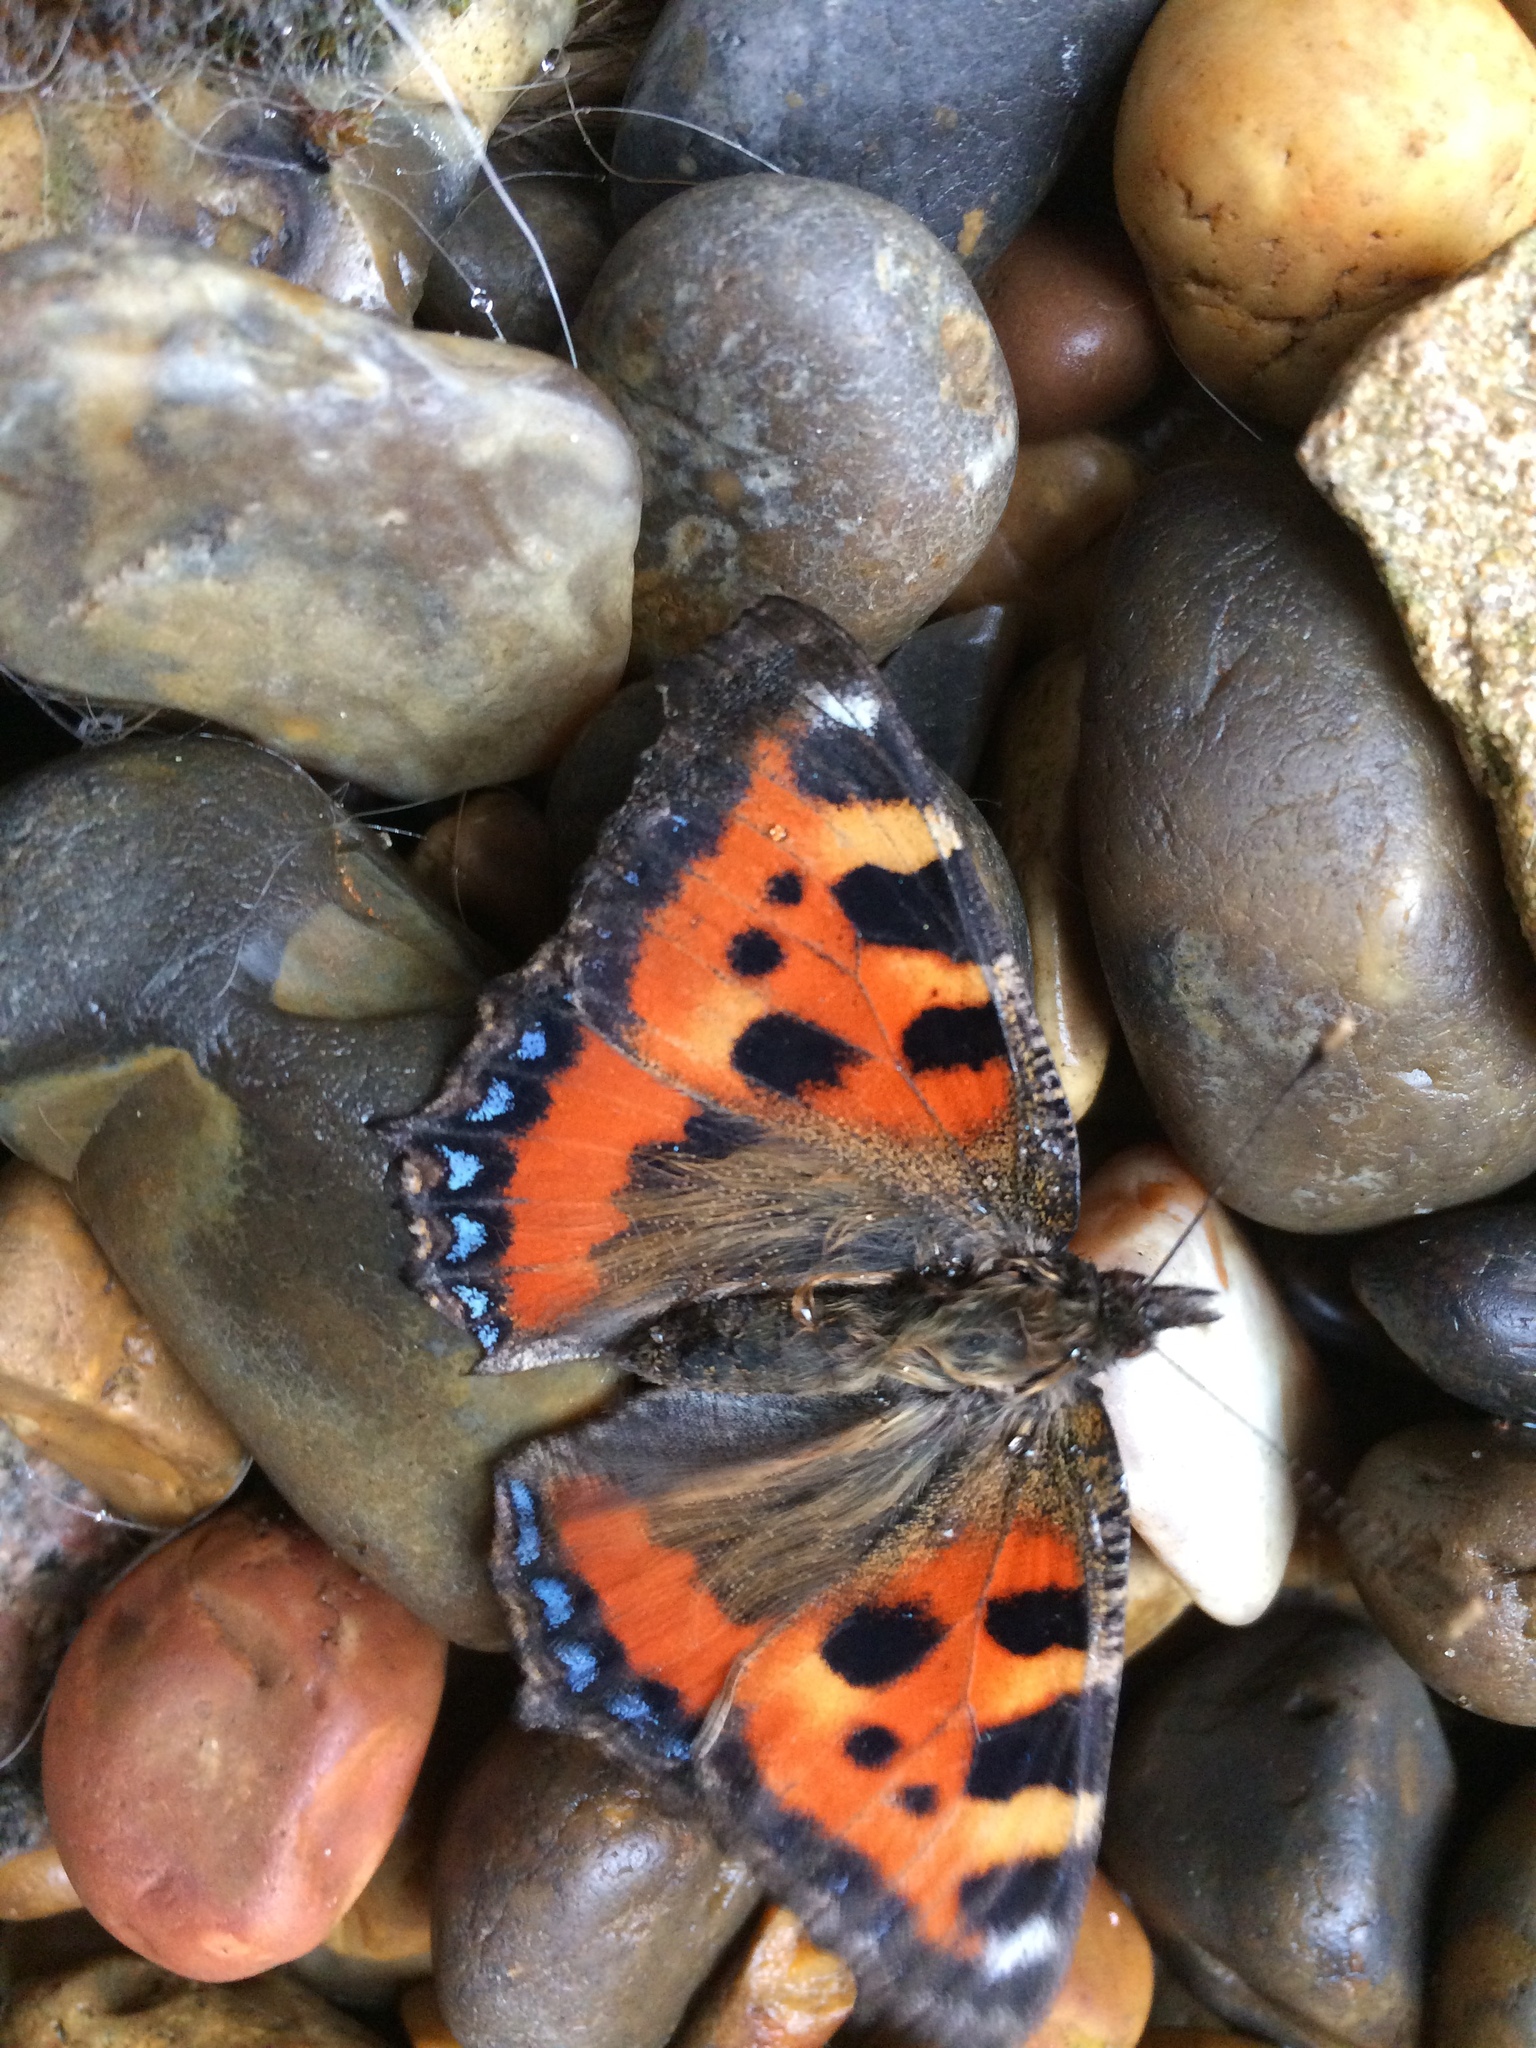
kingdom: Animalia
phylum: Arthropoda
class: Insecta
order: Lepidoptera
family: Nymphalidae
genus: Aglais
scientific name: Aglais urticae
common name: Small tortoiseshell
